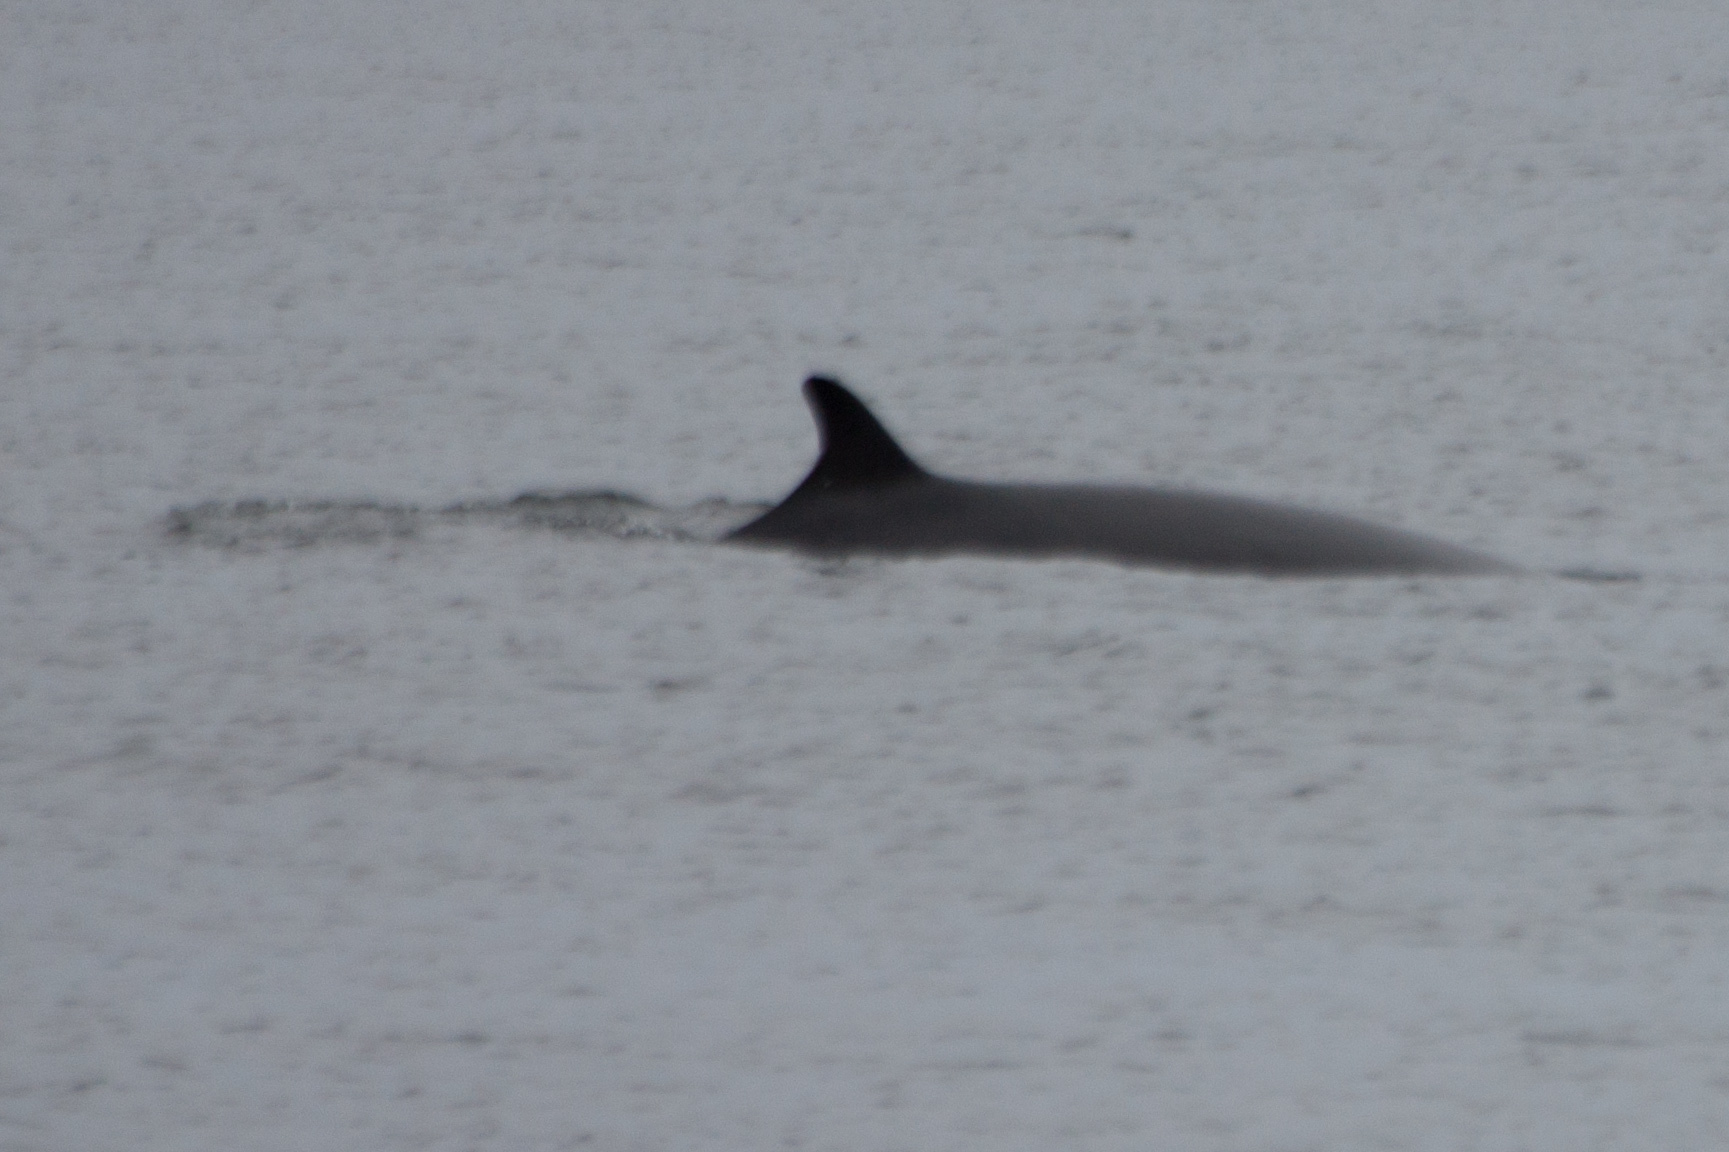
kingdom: Animalia
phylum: Chordata
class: Mammalia
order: Cetacea
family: Balaenopteridae
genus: Balaenoptera
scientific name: Balaenoptera acutorostrata
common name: Common minke whale
